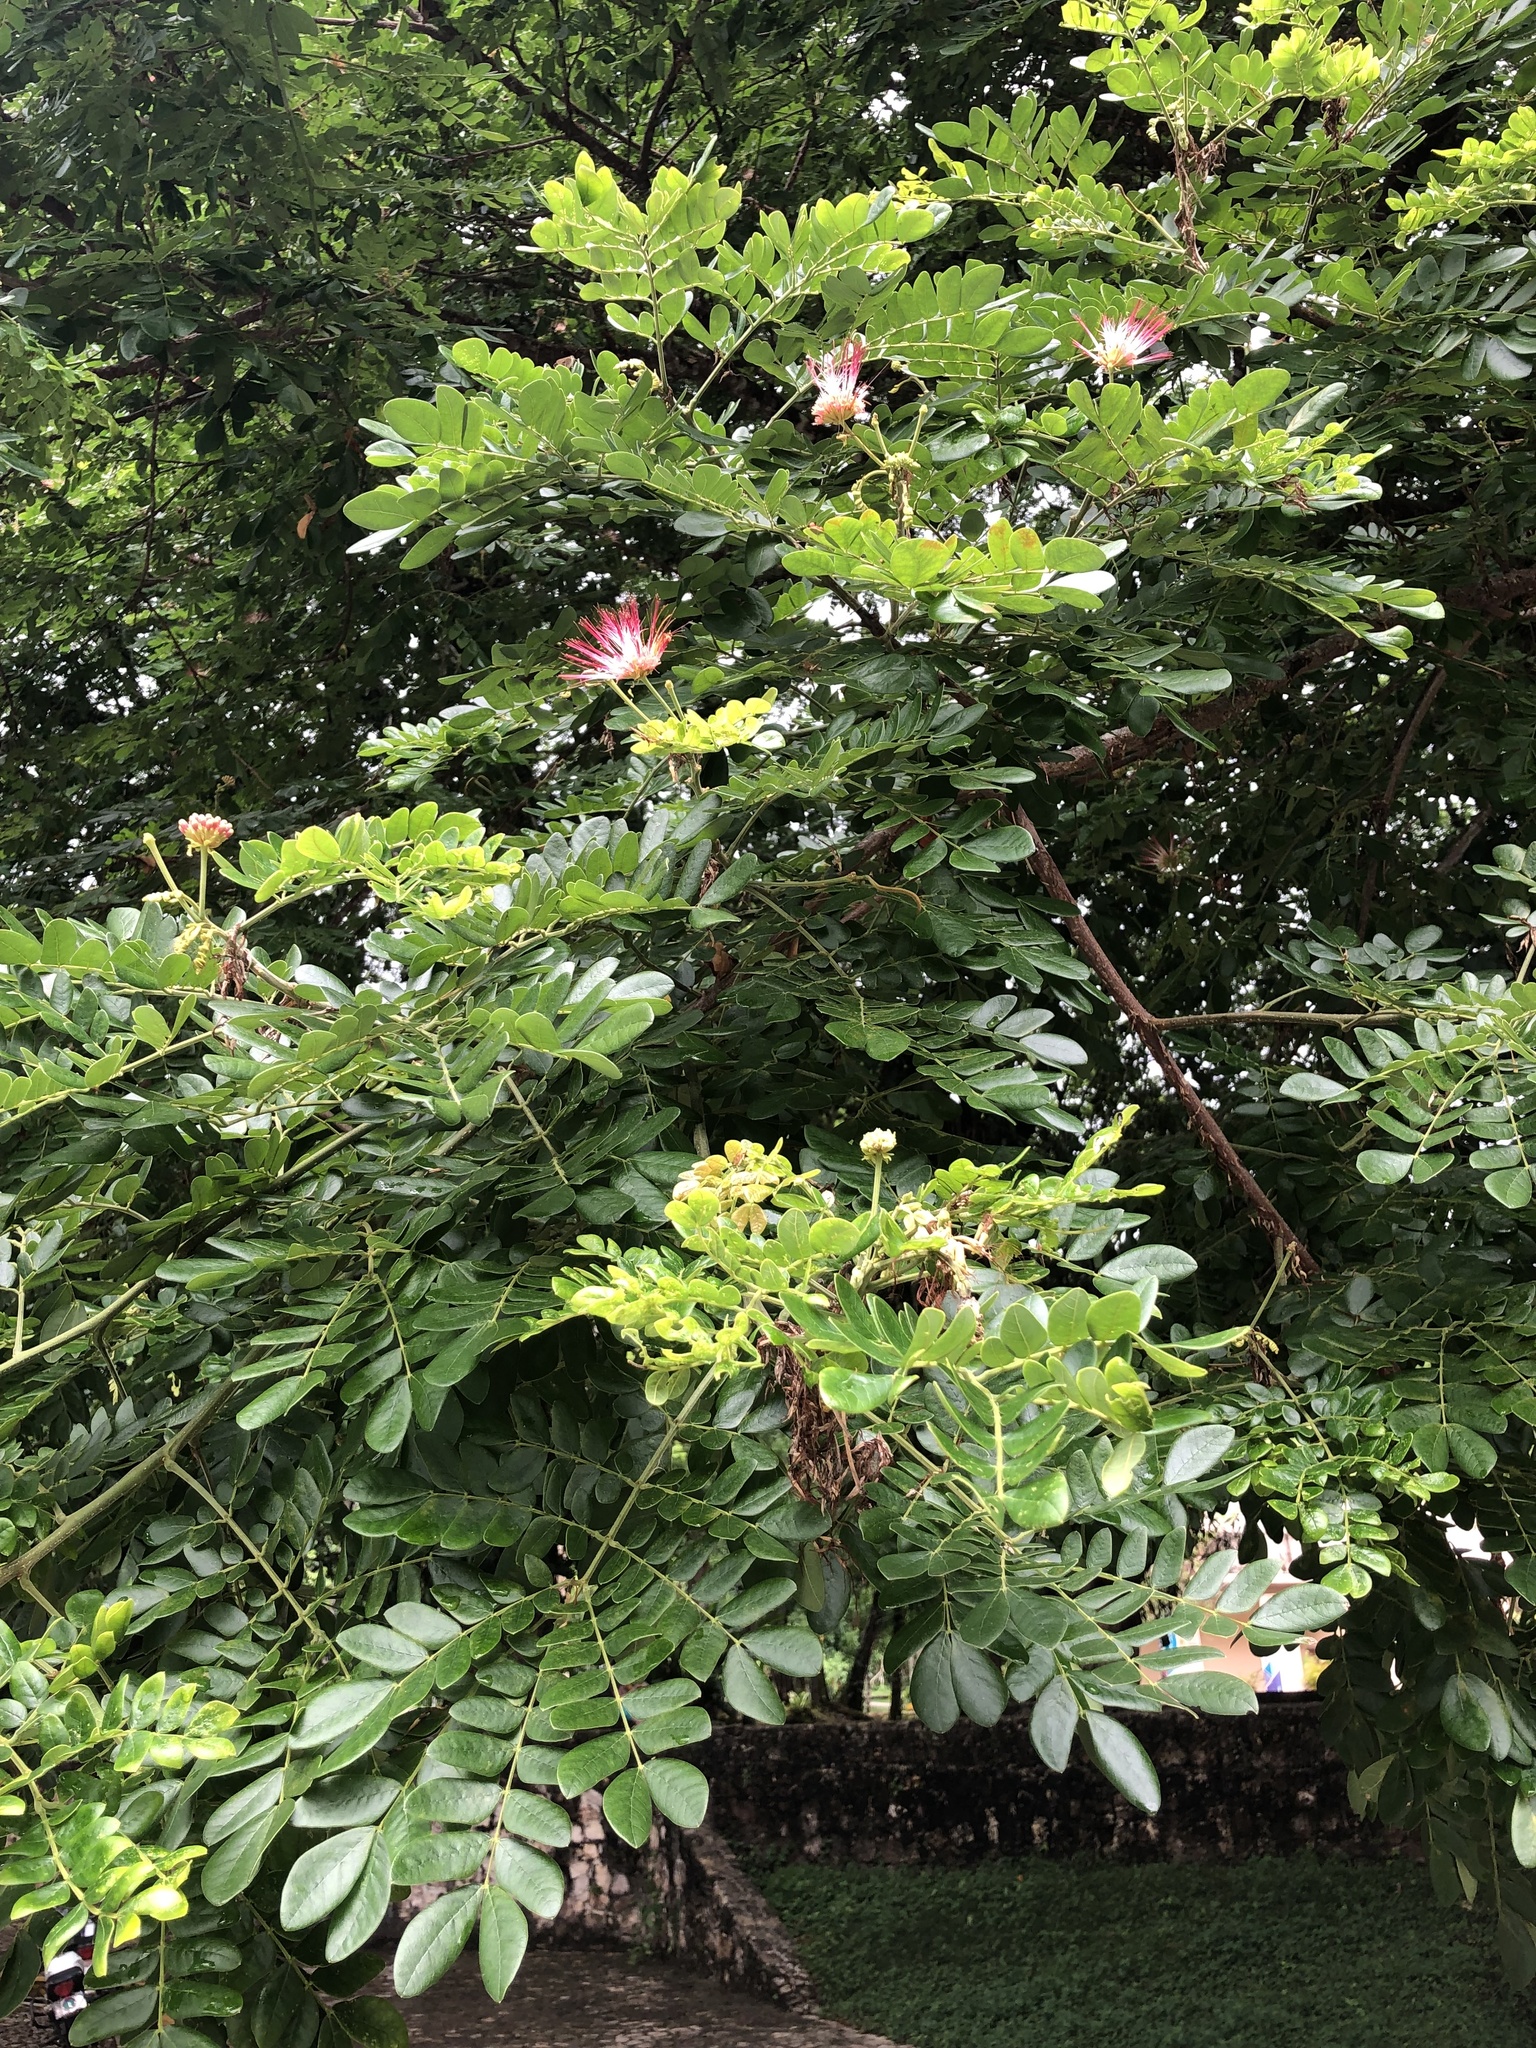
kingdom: Plantae
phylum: Tracheophyta
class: Magnoliopsida
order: Fabales
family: Fabaceae
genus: Samanea
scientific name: Samanea saman
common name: Raintree
